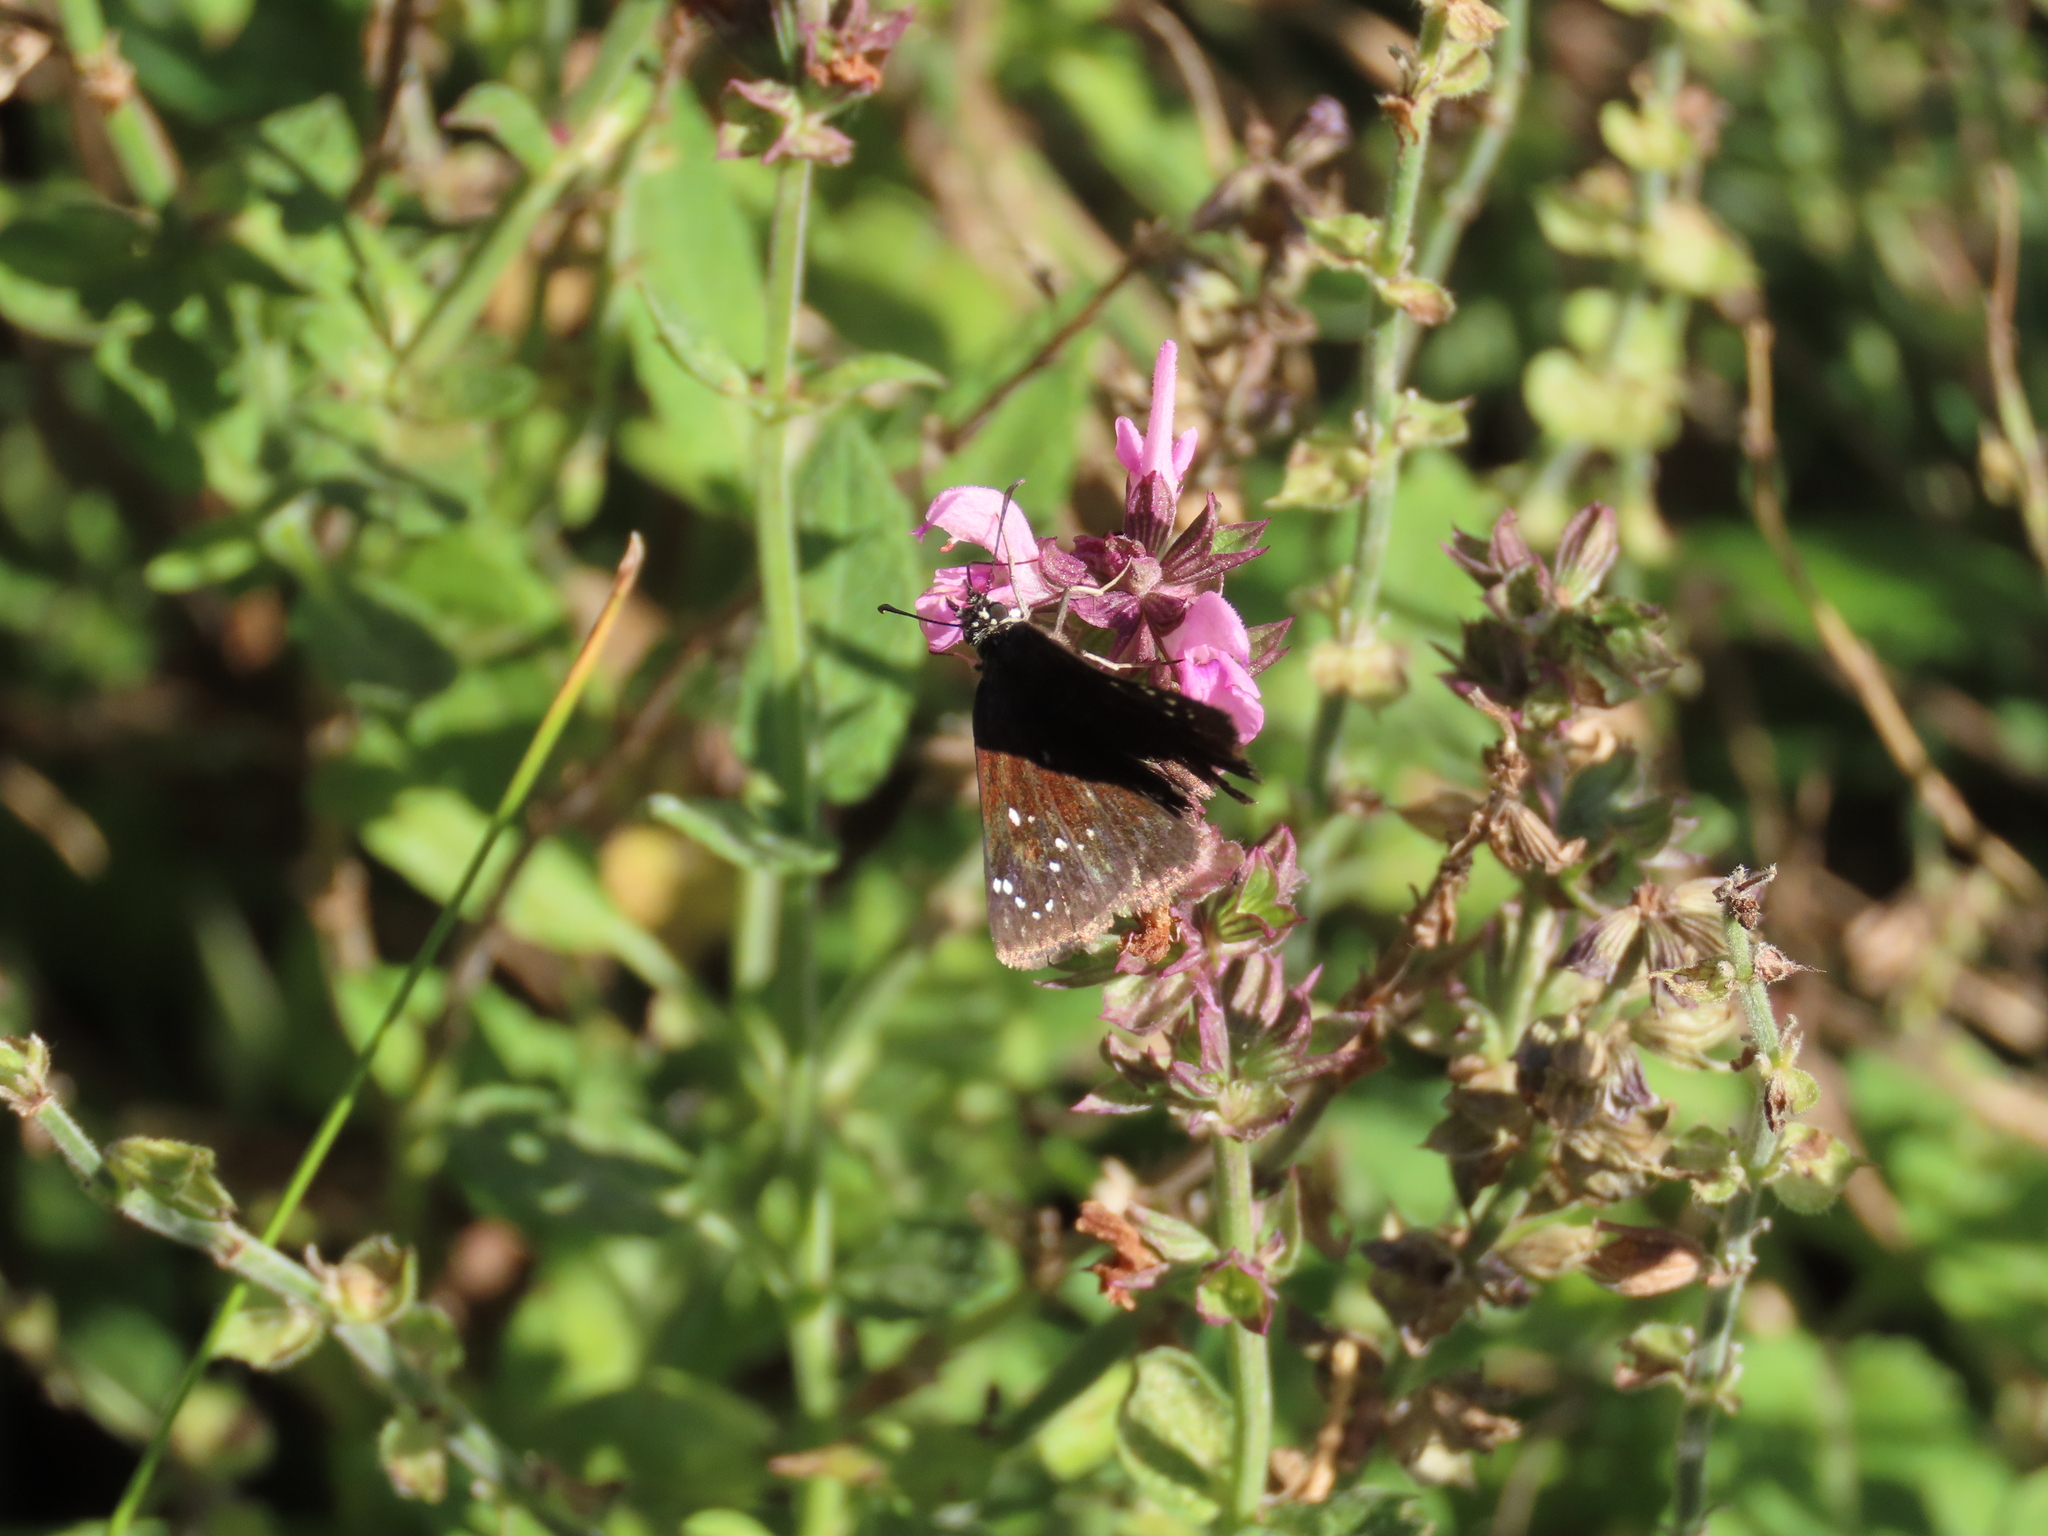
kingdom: Animalia
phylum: Arthropoda
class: Insecta
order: Lepidoptera
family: Hesperiidae
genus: Pholisora
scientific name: Pholisora catullus
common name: Common sootywing
